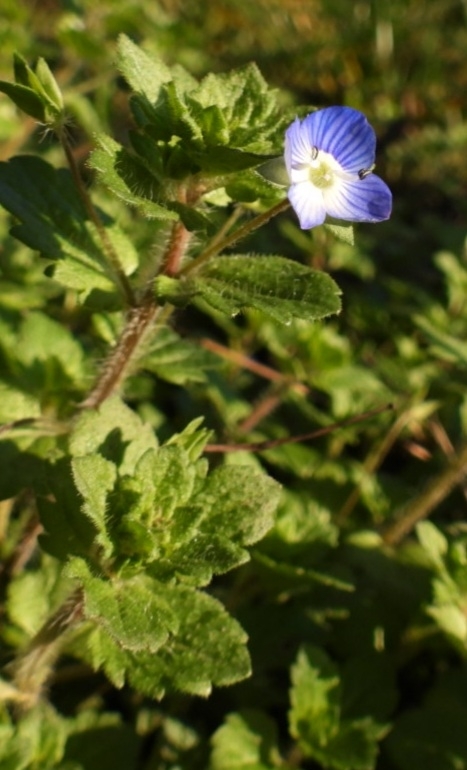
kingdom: Plantae
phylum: Tracheophyta
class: Magnoliopsida
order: Lamiales
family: Plantaginaceae
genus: Veronica
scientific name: Veronica persica
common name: Common field-speedwell
